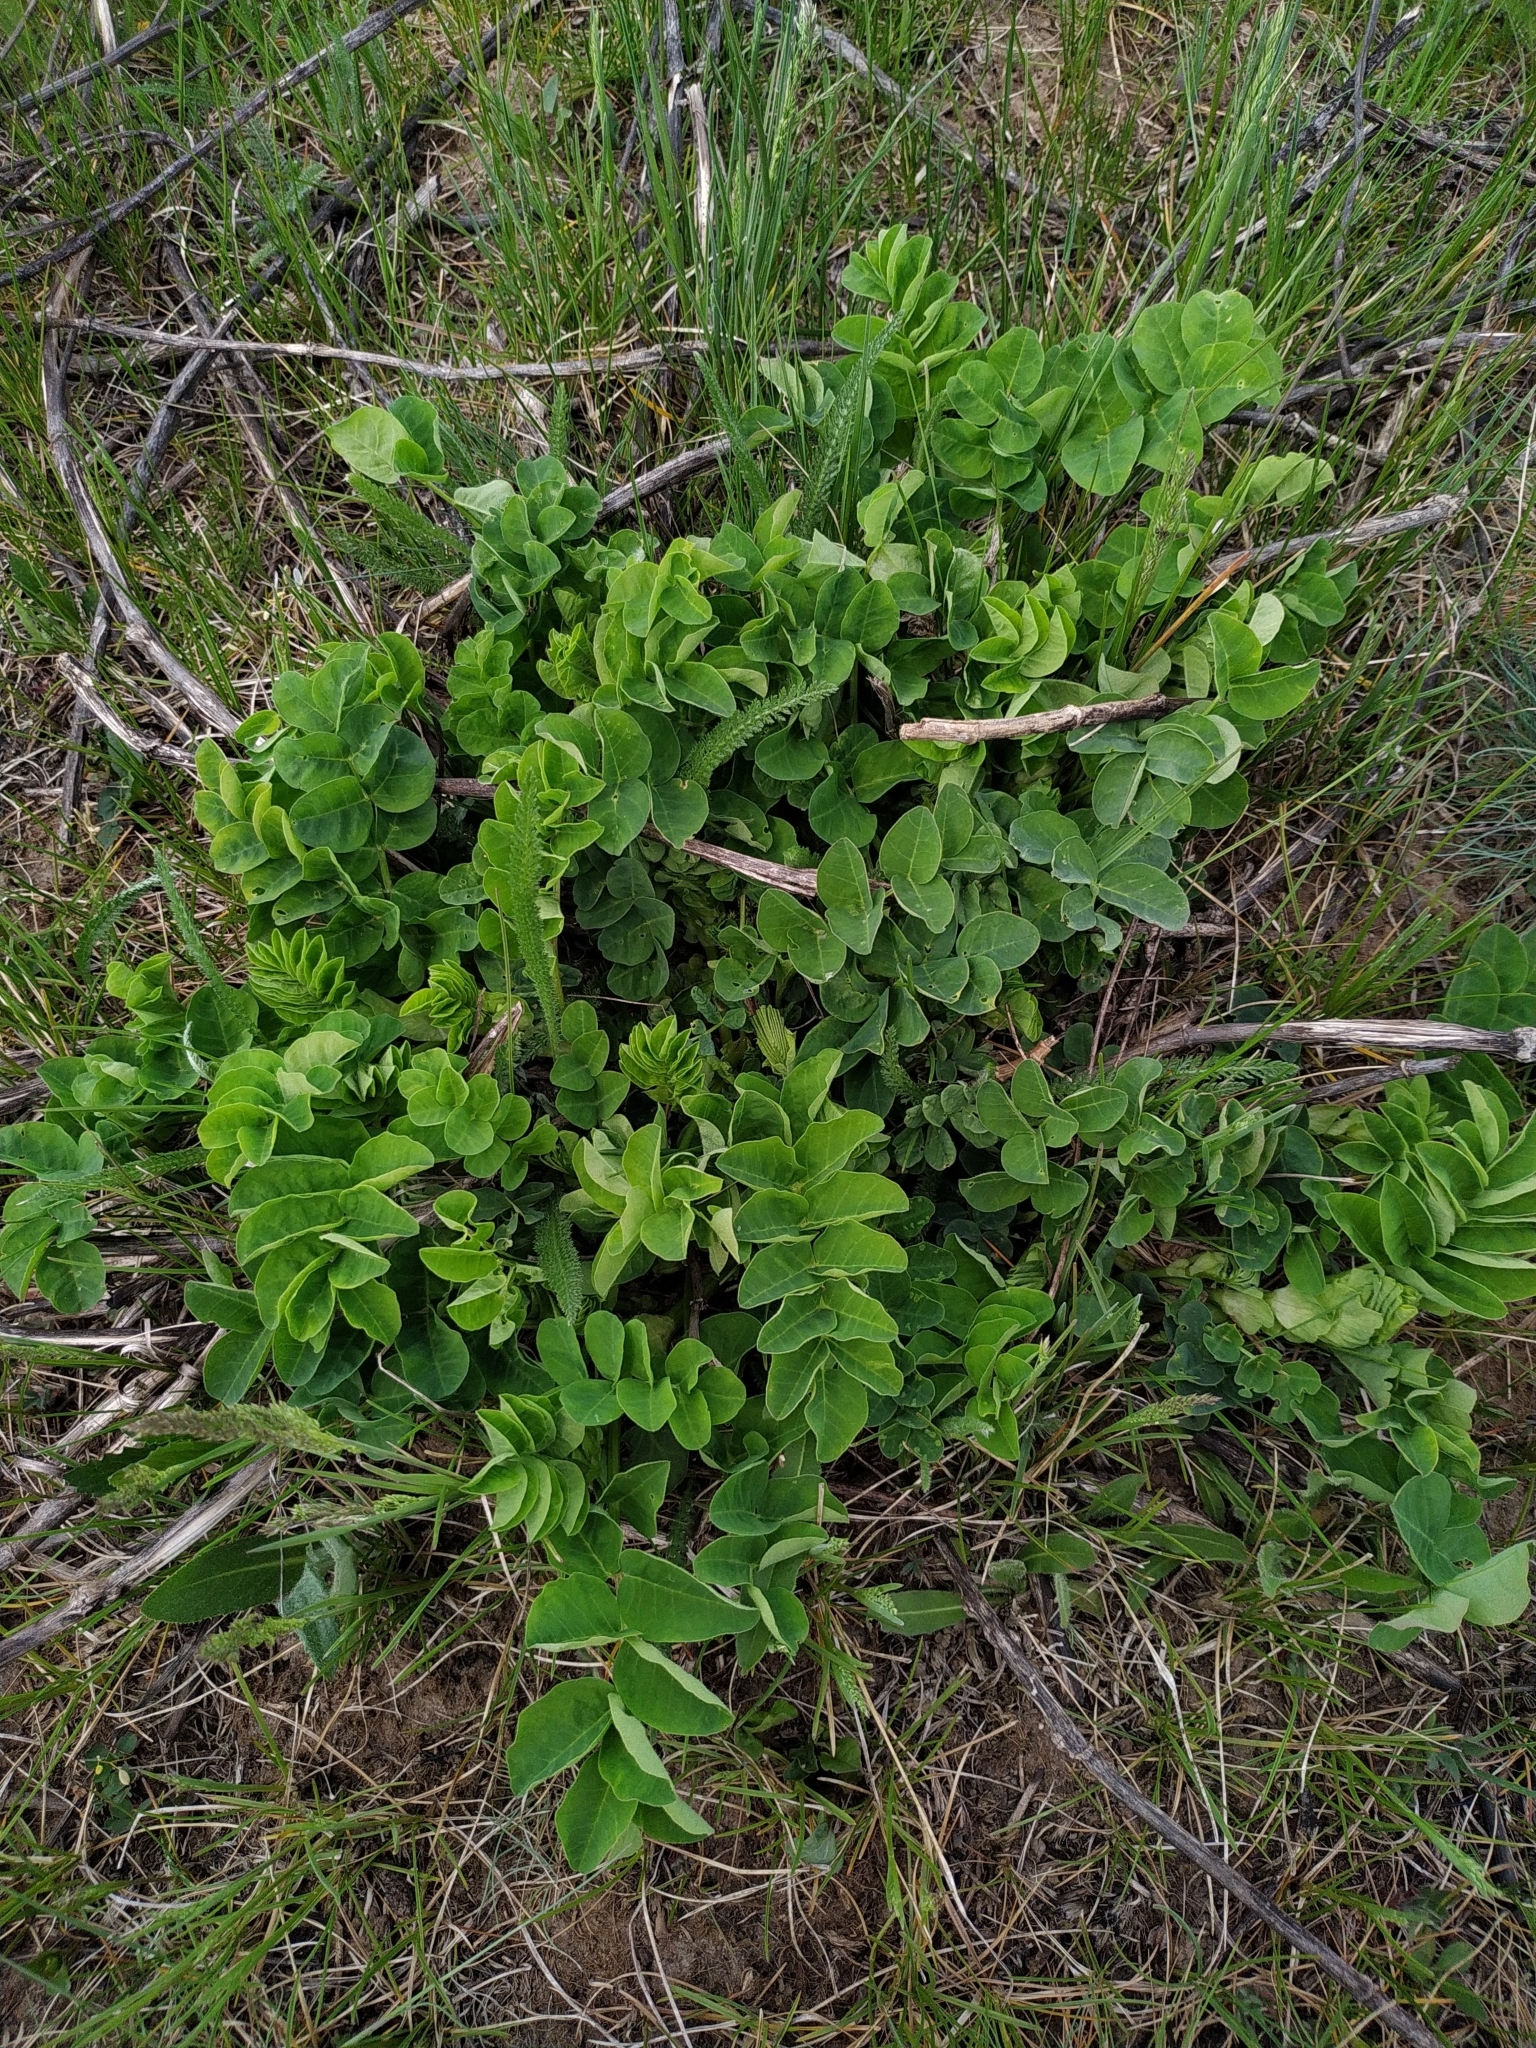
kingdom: Plantae
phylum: Tracheophyta
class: Magnoliopsida
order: Fabales
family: Fabaceae
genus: Astragalus
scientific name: Astragalus glycyphyllos
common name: Wild liquorice
